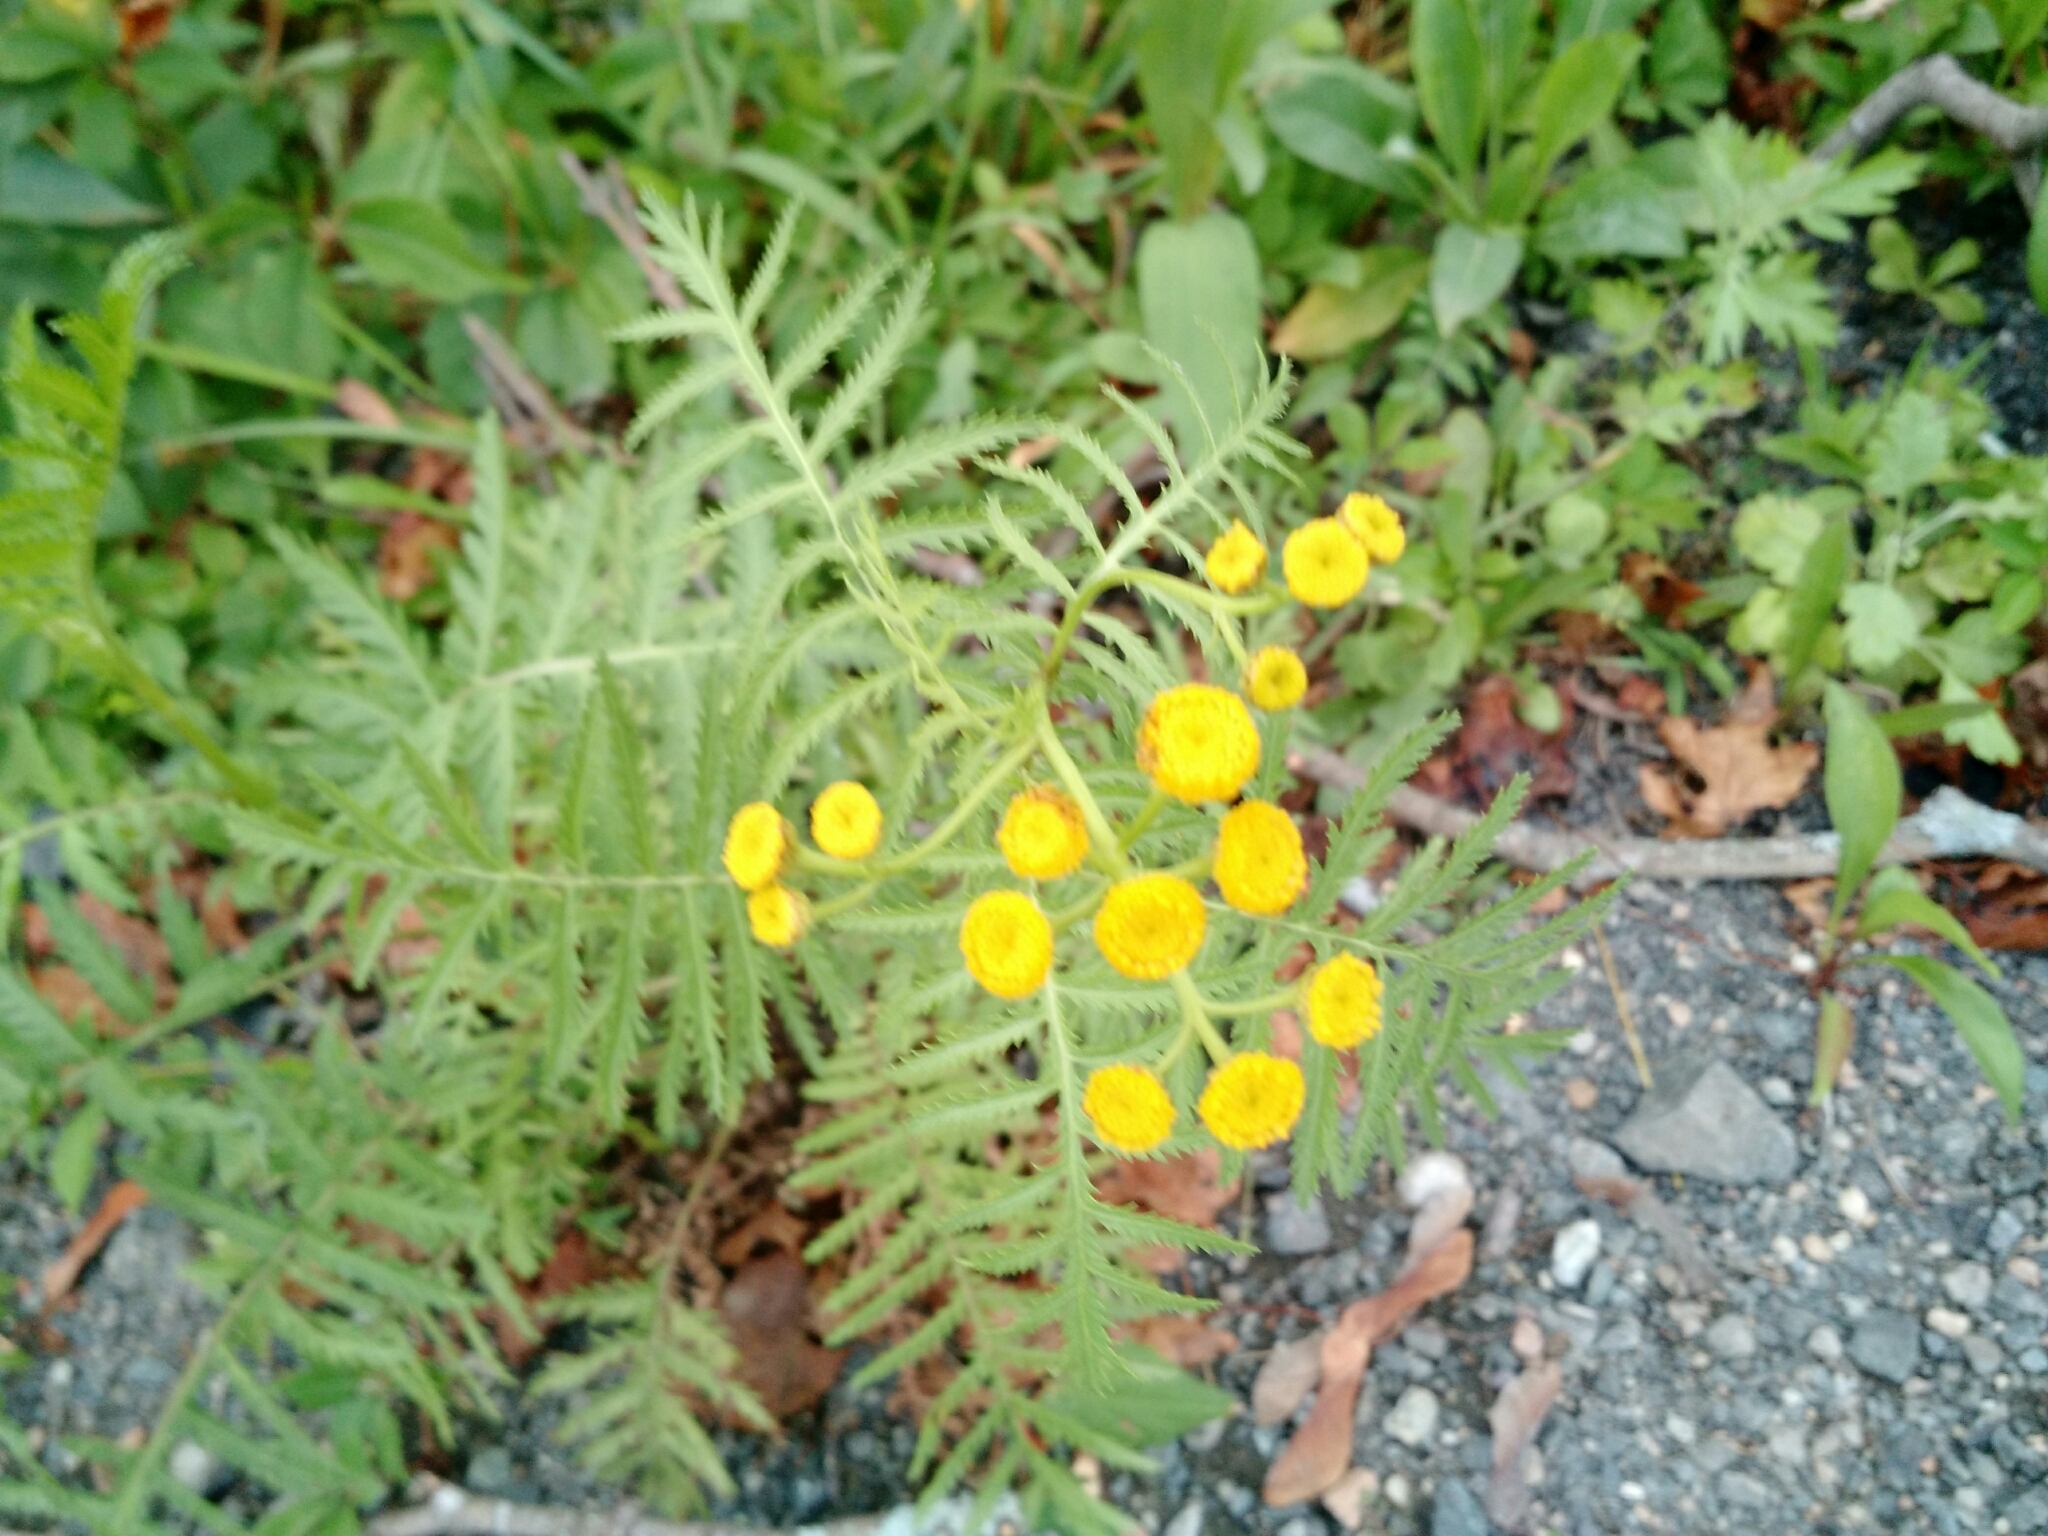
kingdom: Plantae
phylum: Tracheophyta
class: Magnoliopsida
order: Asterales
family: Asteraceae
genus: Tanacetum
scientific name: Tanacetum vulgare
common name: Common tansy
